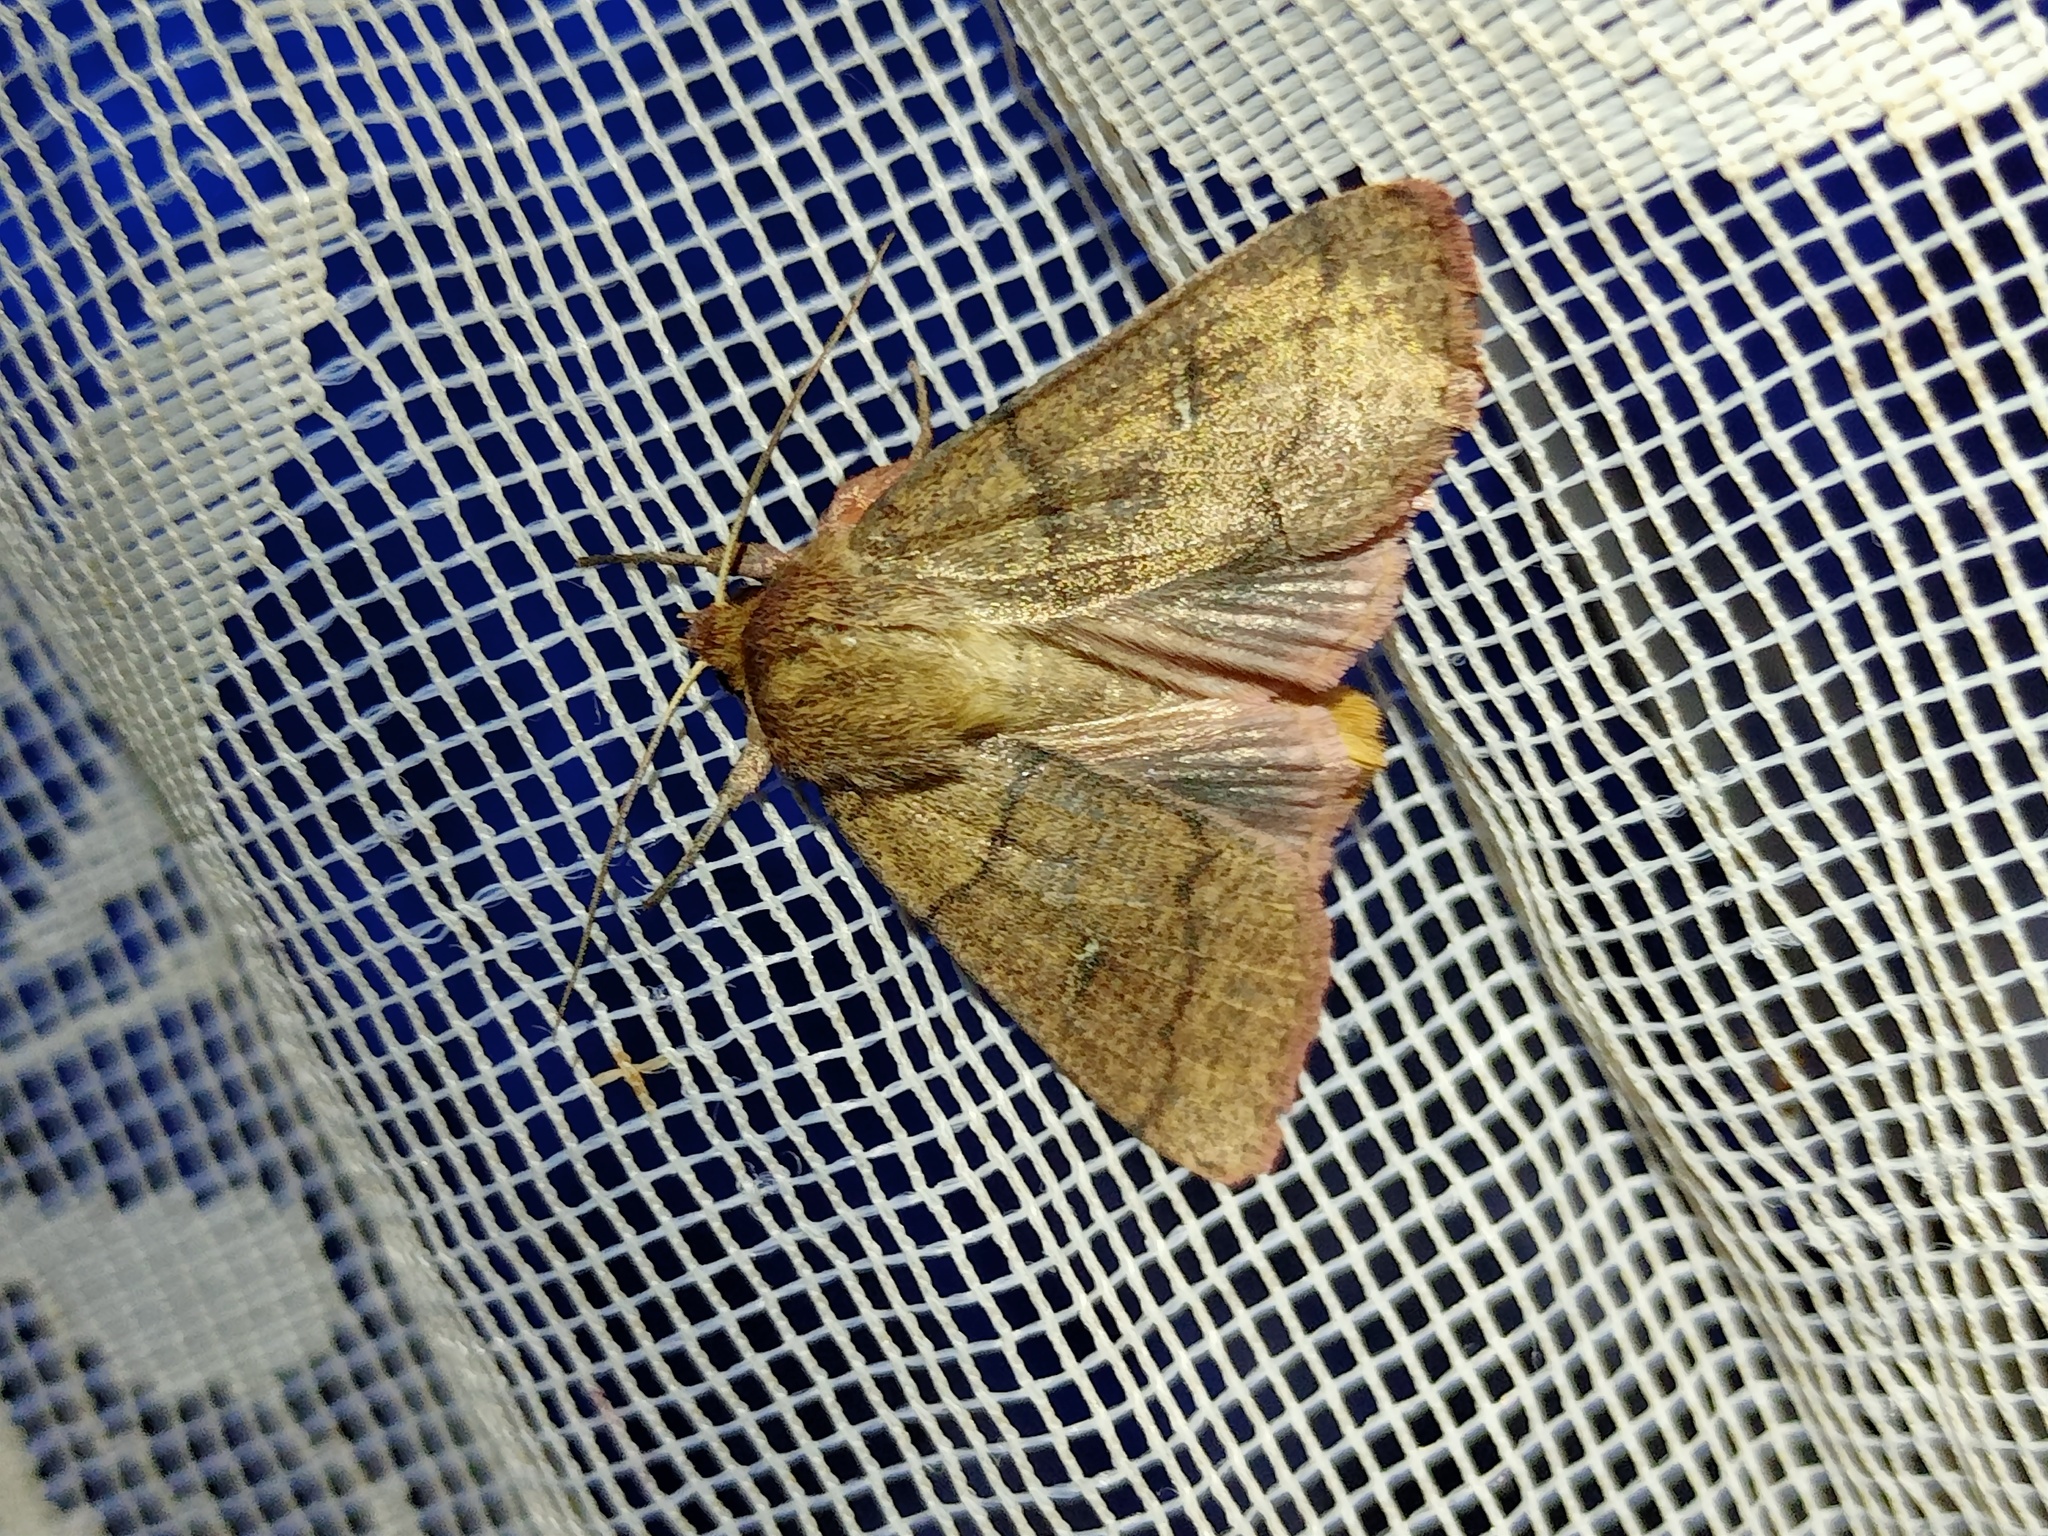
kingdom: Animalia
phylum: Arthropoda
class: Insecta
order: Lepidoptera
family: Noctuidae
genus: Mythimna
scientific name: Mythimna turca
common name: Double line
